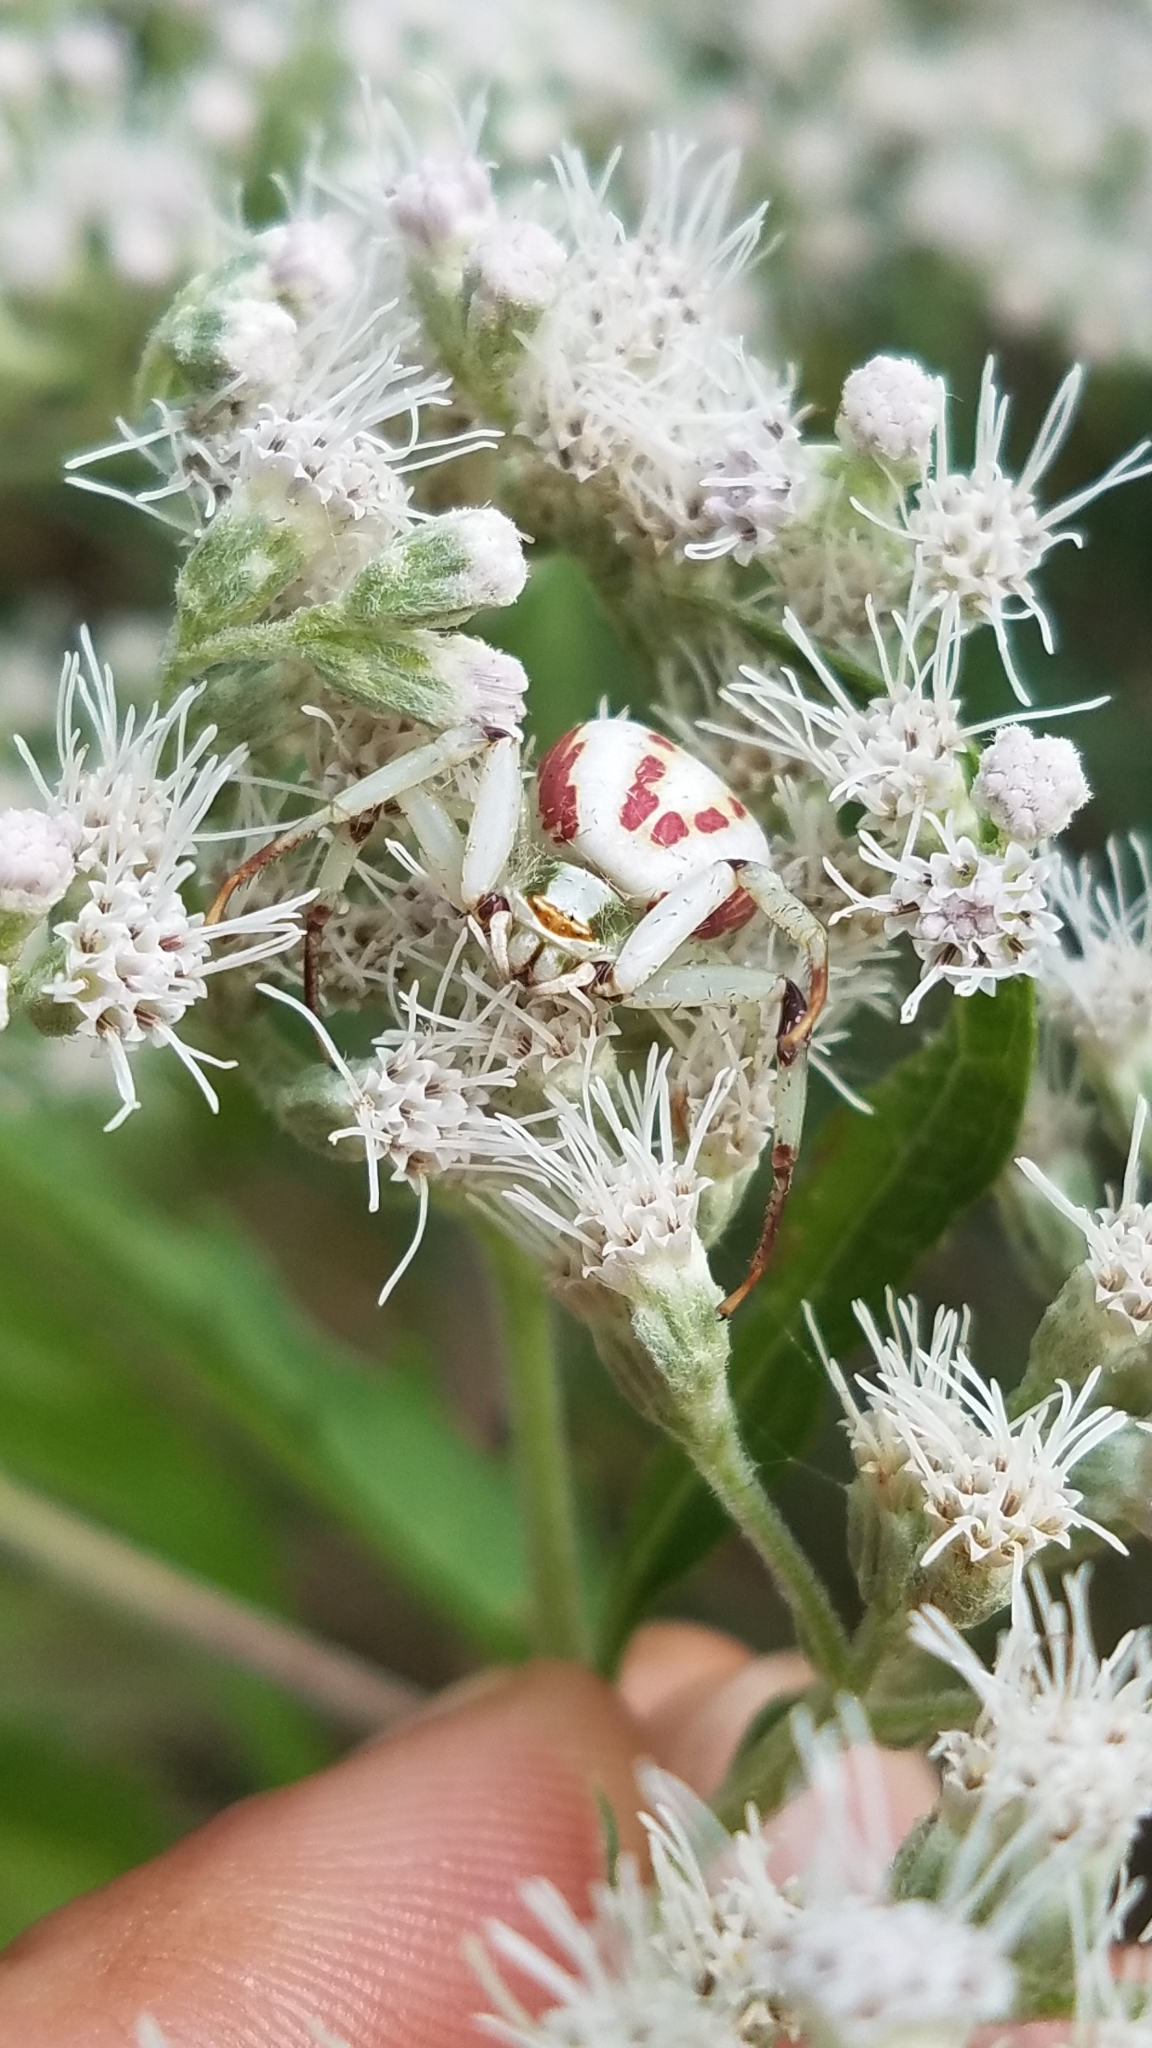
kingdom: Animalia
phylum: Arthropoda
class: Arachnida
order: Araneae
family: Thomisidae
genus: Misumenoides
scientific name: Misumenoides formosipes
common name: White-banded crab spider
